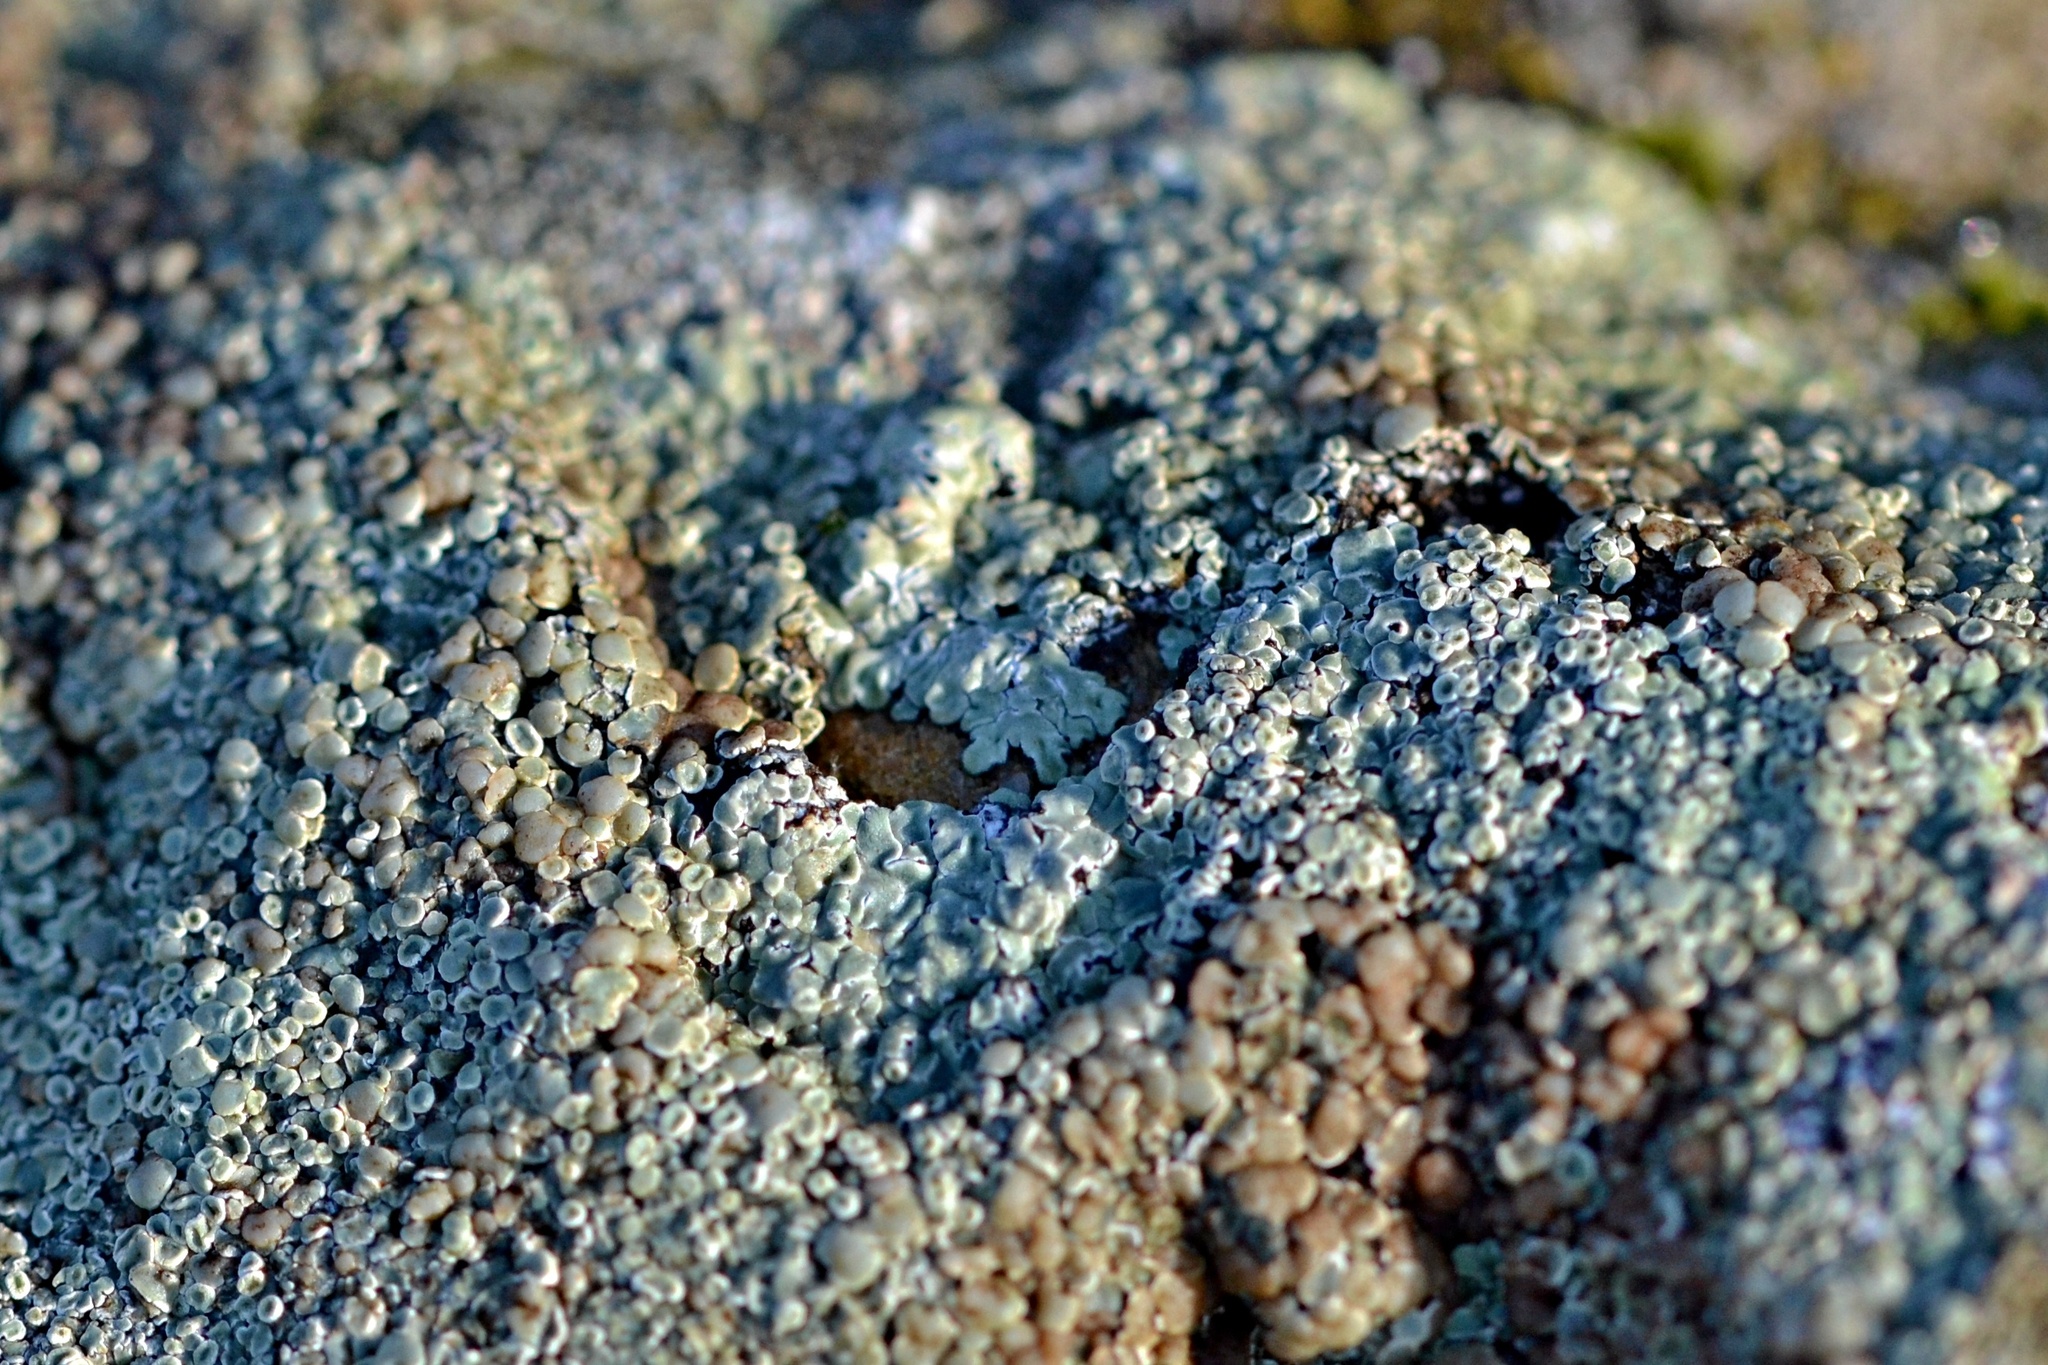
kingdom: Fungi
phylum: Ascomycota
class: Lecanoromycetes
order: Lecanorales
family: Lecanoraceae
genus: Protoparmeliopsis
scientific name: Protoparmeliopsis muralis
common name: Stonewall rim lichen
